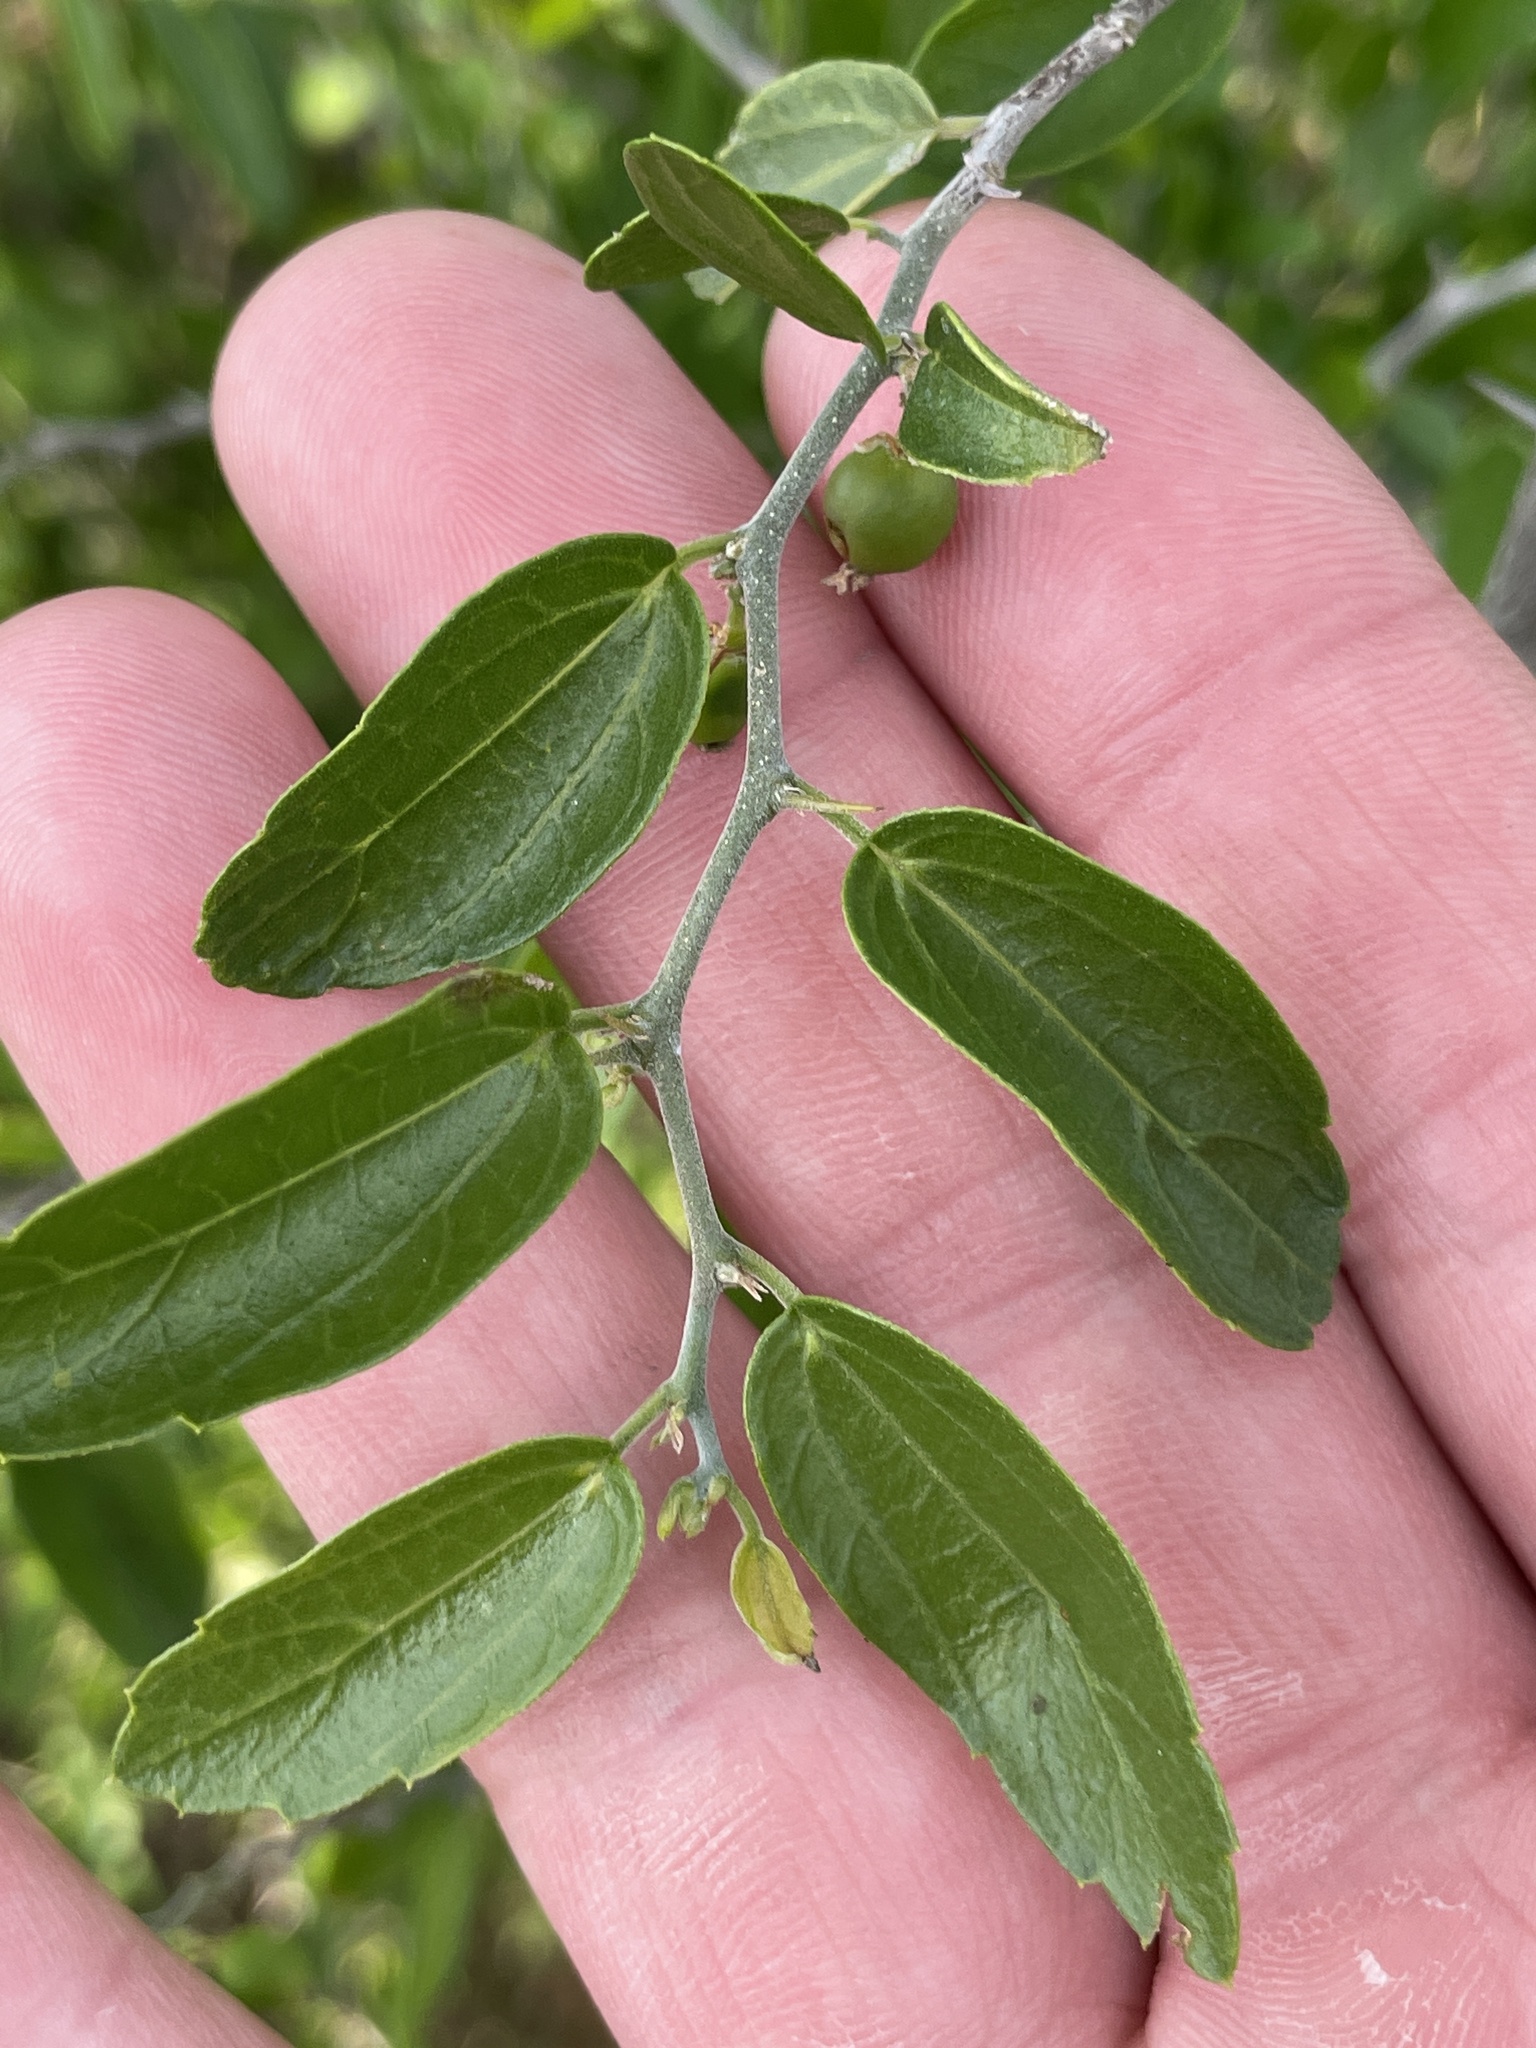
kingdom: Plantae
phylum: Tracheophyta
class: Magnoliopsida
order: Rosales
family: Cannabaceae
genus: Celtis
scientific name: Celtis pallida
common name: Desert hackberry
